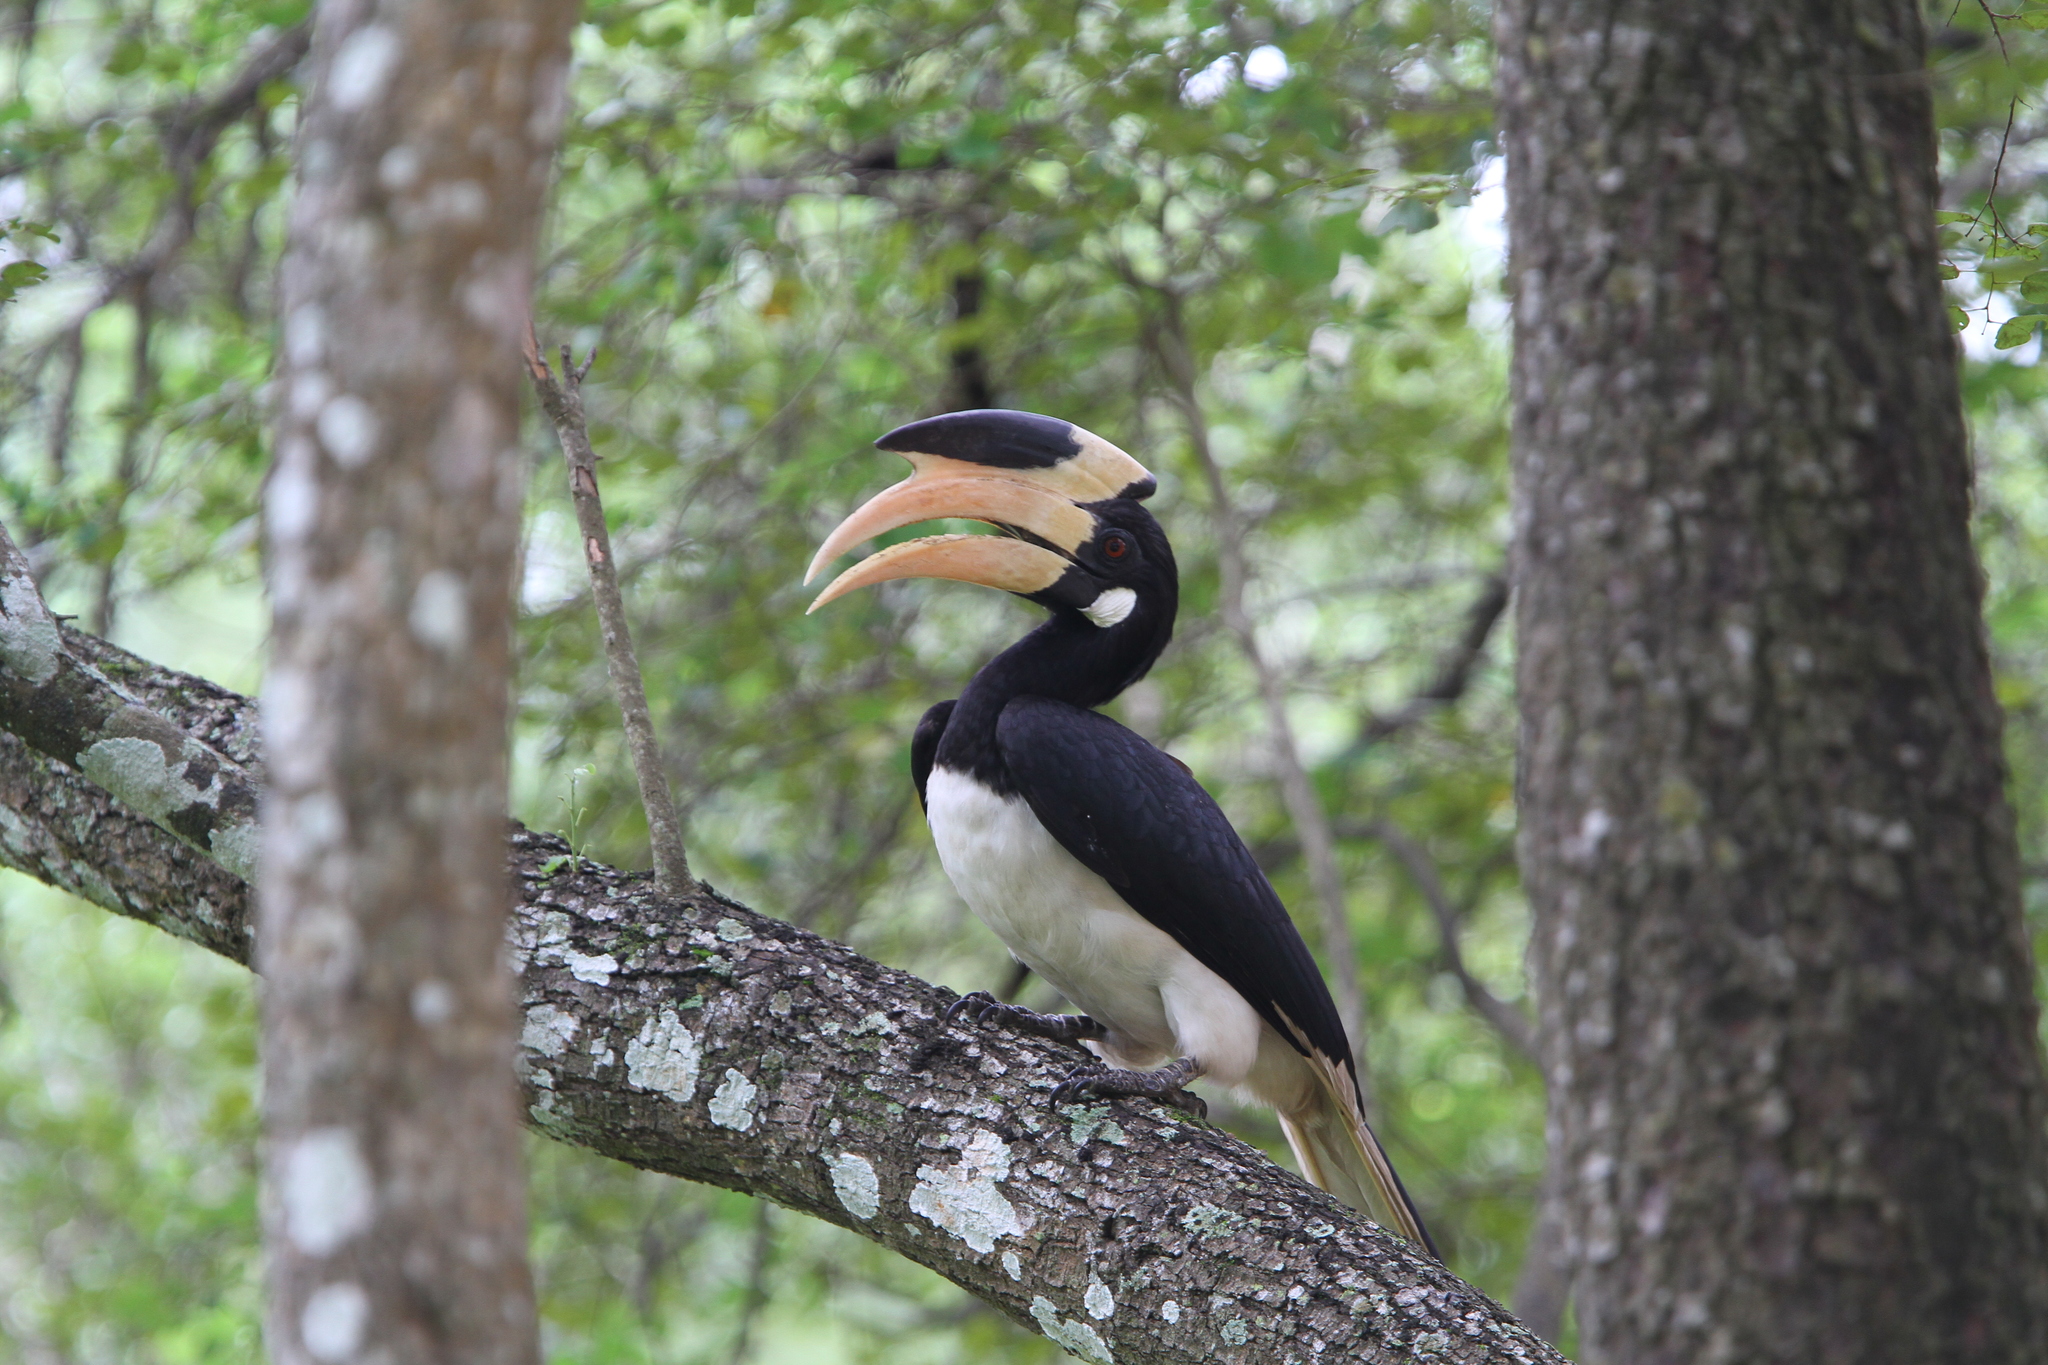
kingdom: Animalia
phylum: Chordata
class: Aves
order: Bucerotiformes
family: Bucerotidae
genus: Anthracoceros
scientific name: Anthracoceros coronatus
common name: Malabar pied hornbill
